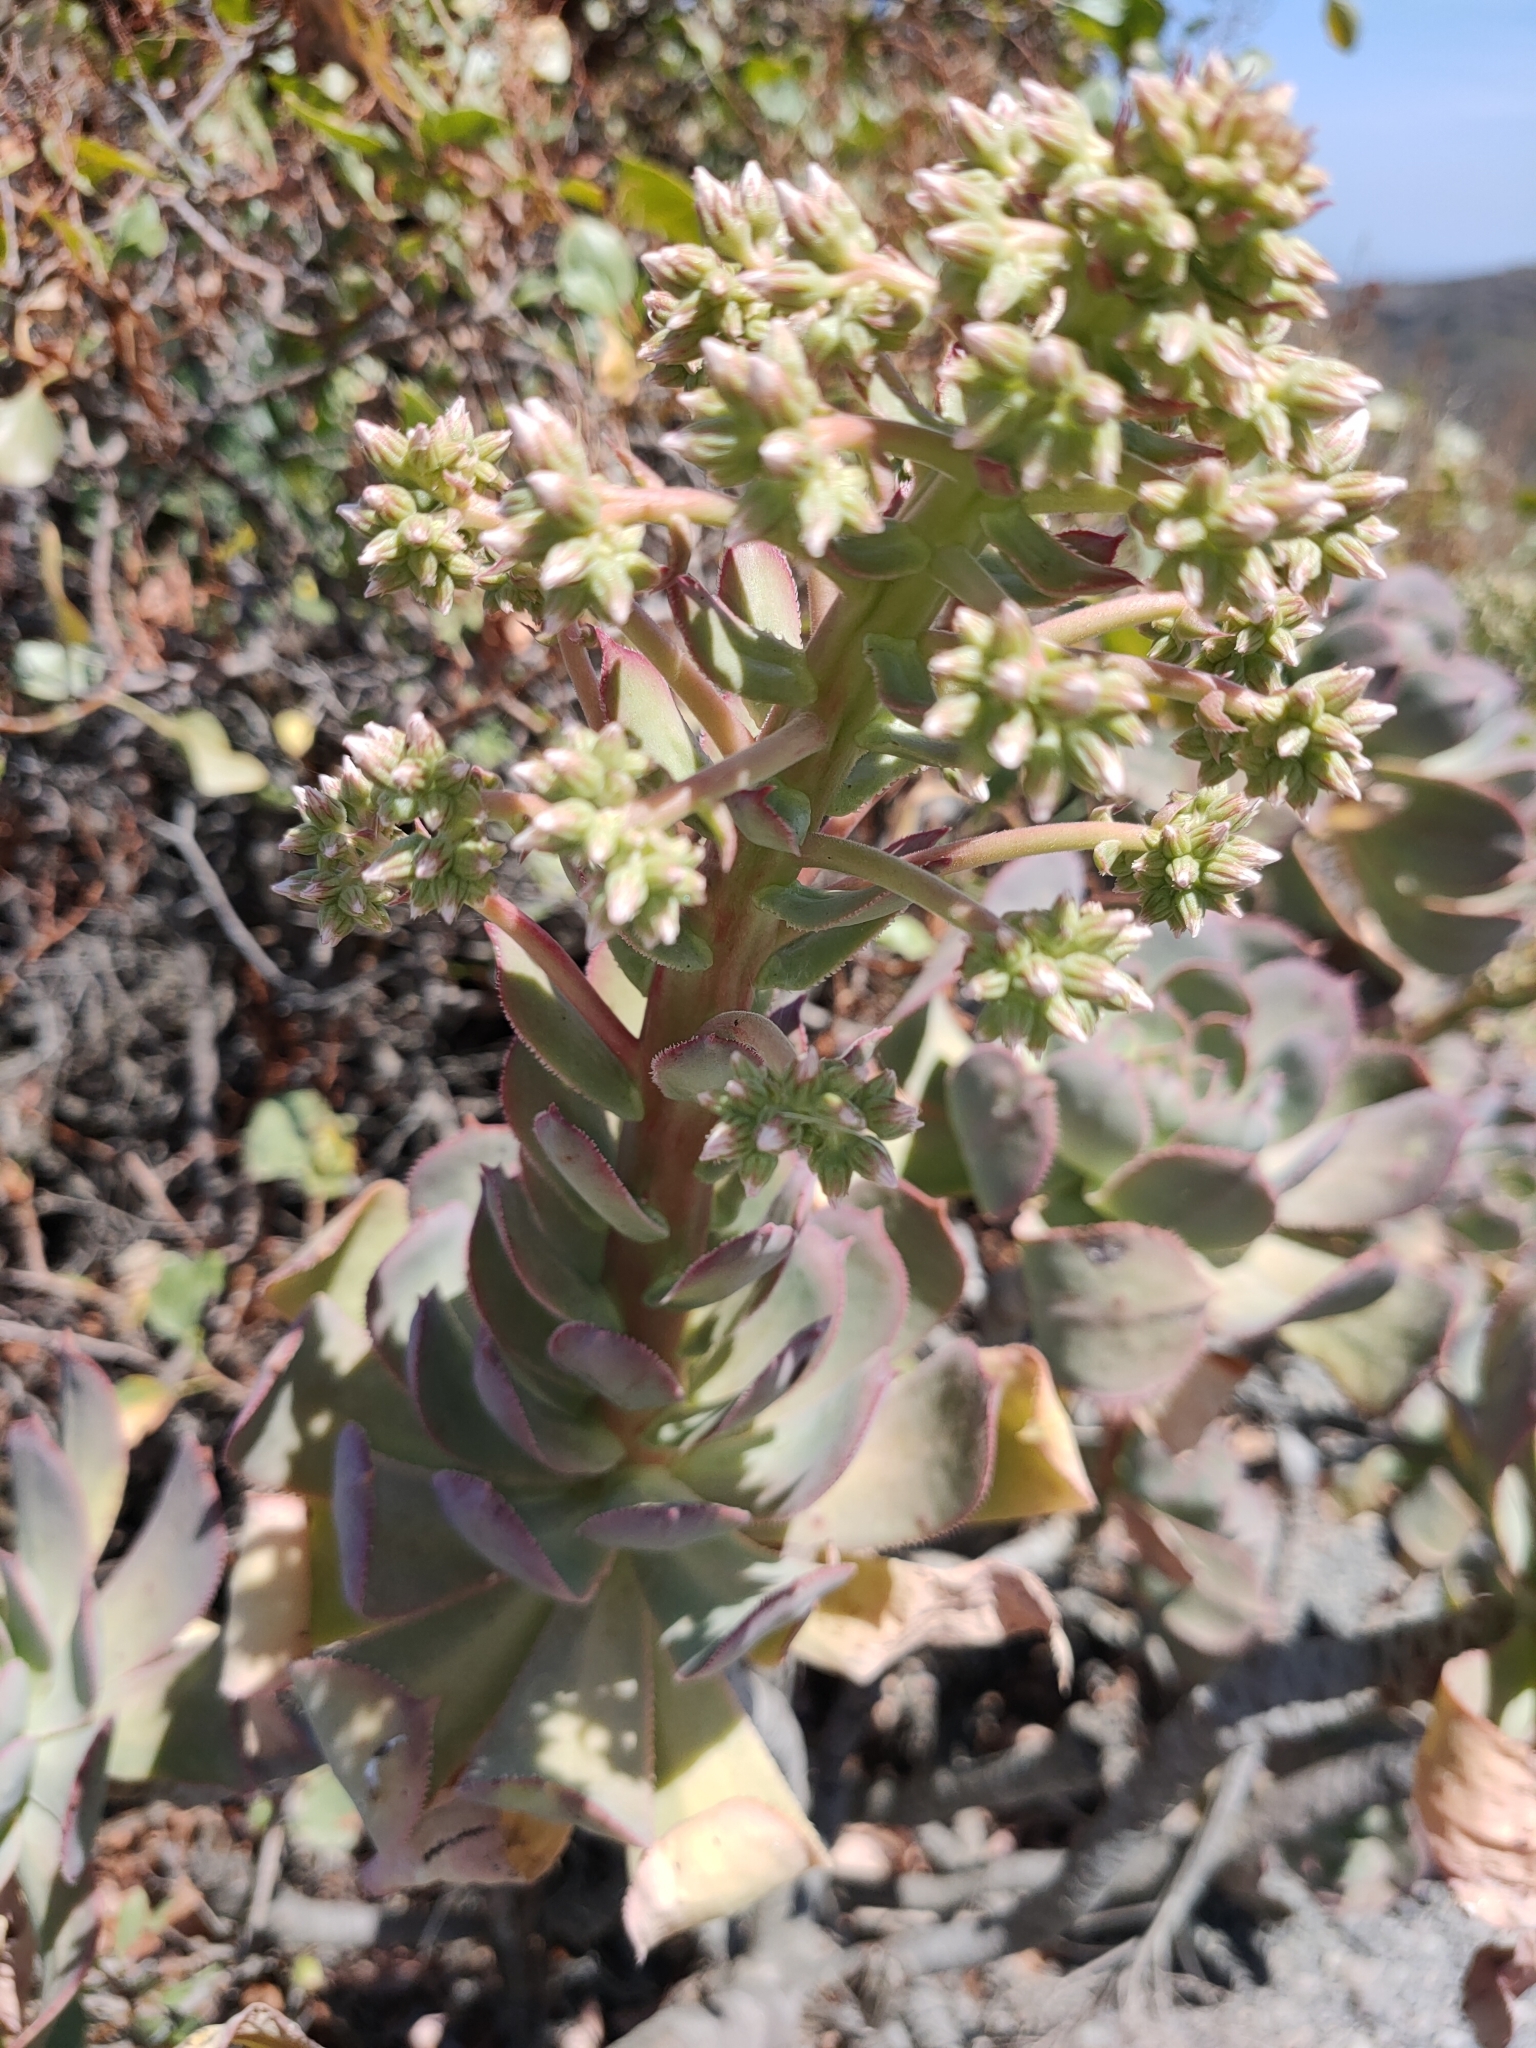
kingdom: Plantae
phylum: Tracheophyta
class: Magnoliopsida
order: Saxifragales
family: Crassulaceae
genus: Aeonium
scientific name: Aeonium percarneum
